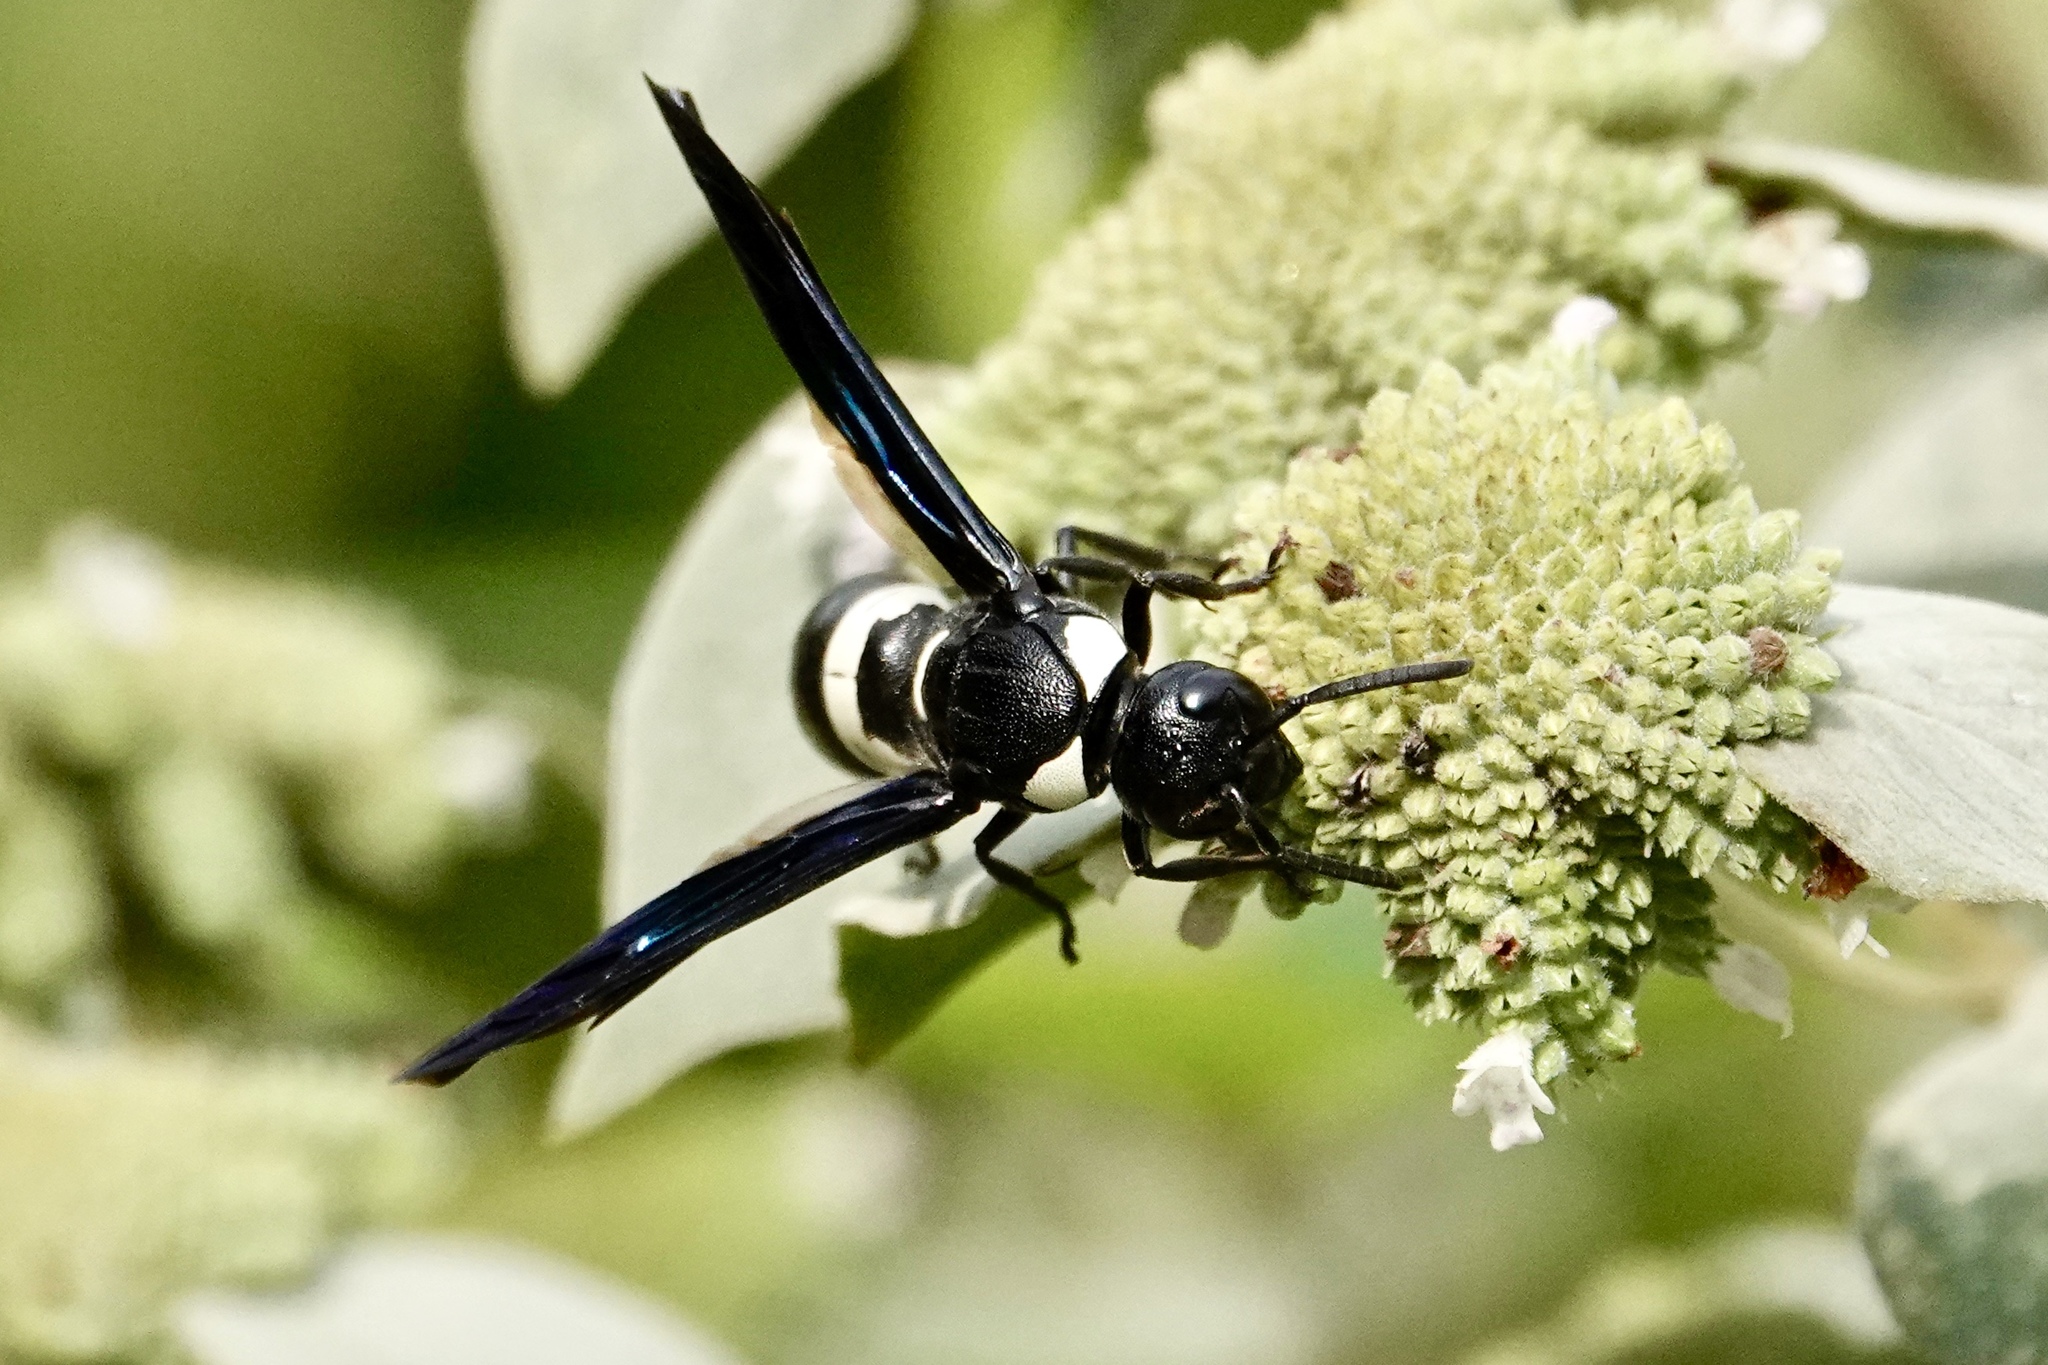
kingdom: Animalia
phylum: Arthropoda
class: Insecta
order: Hymenoptera
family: Eumenidae
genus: Monobia
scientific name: Monobia quadridens
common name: Four-toothed mason wasp
